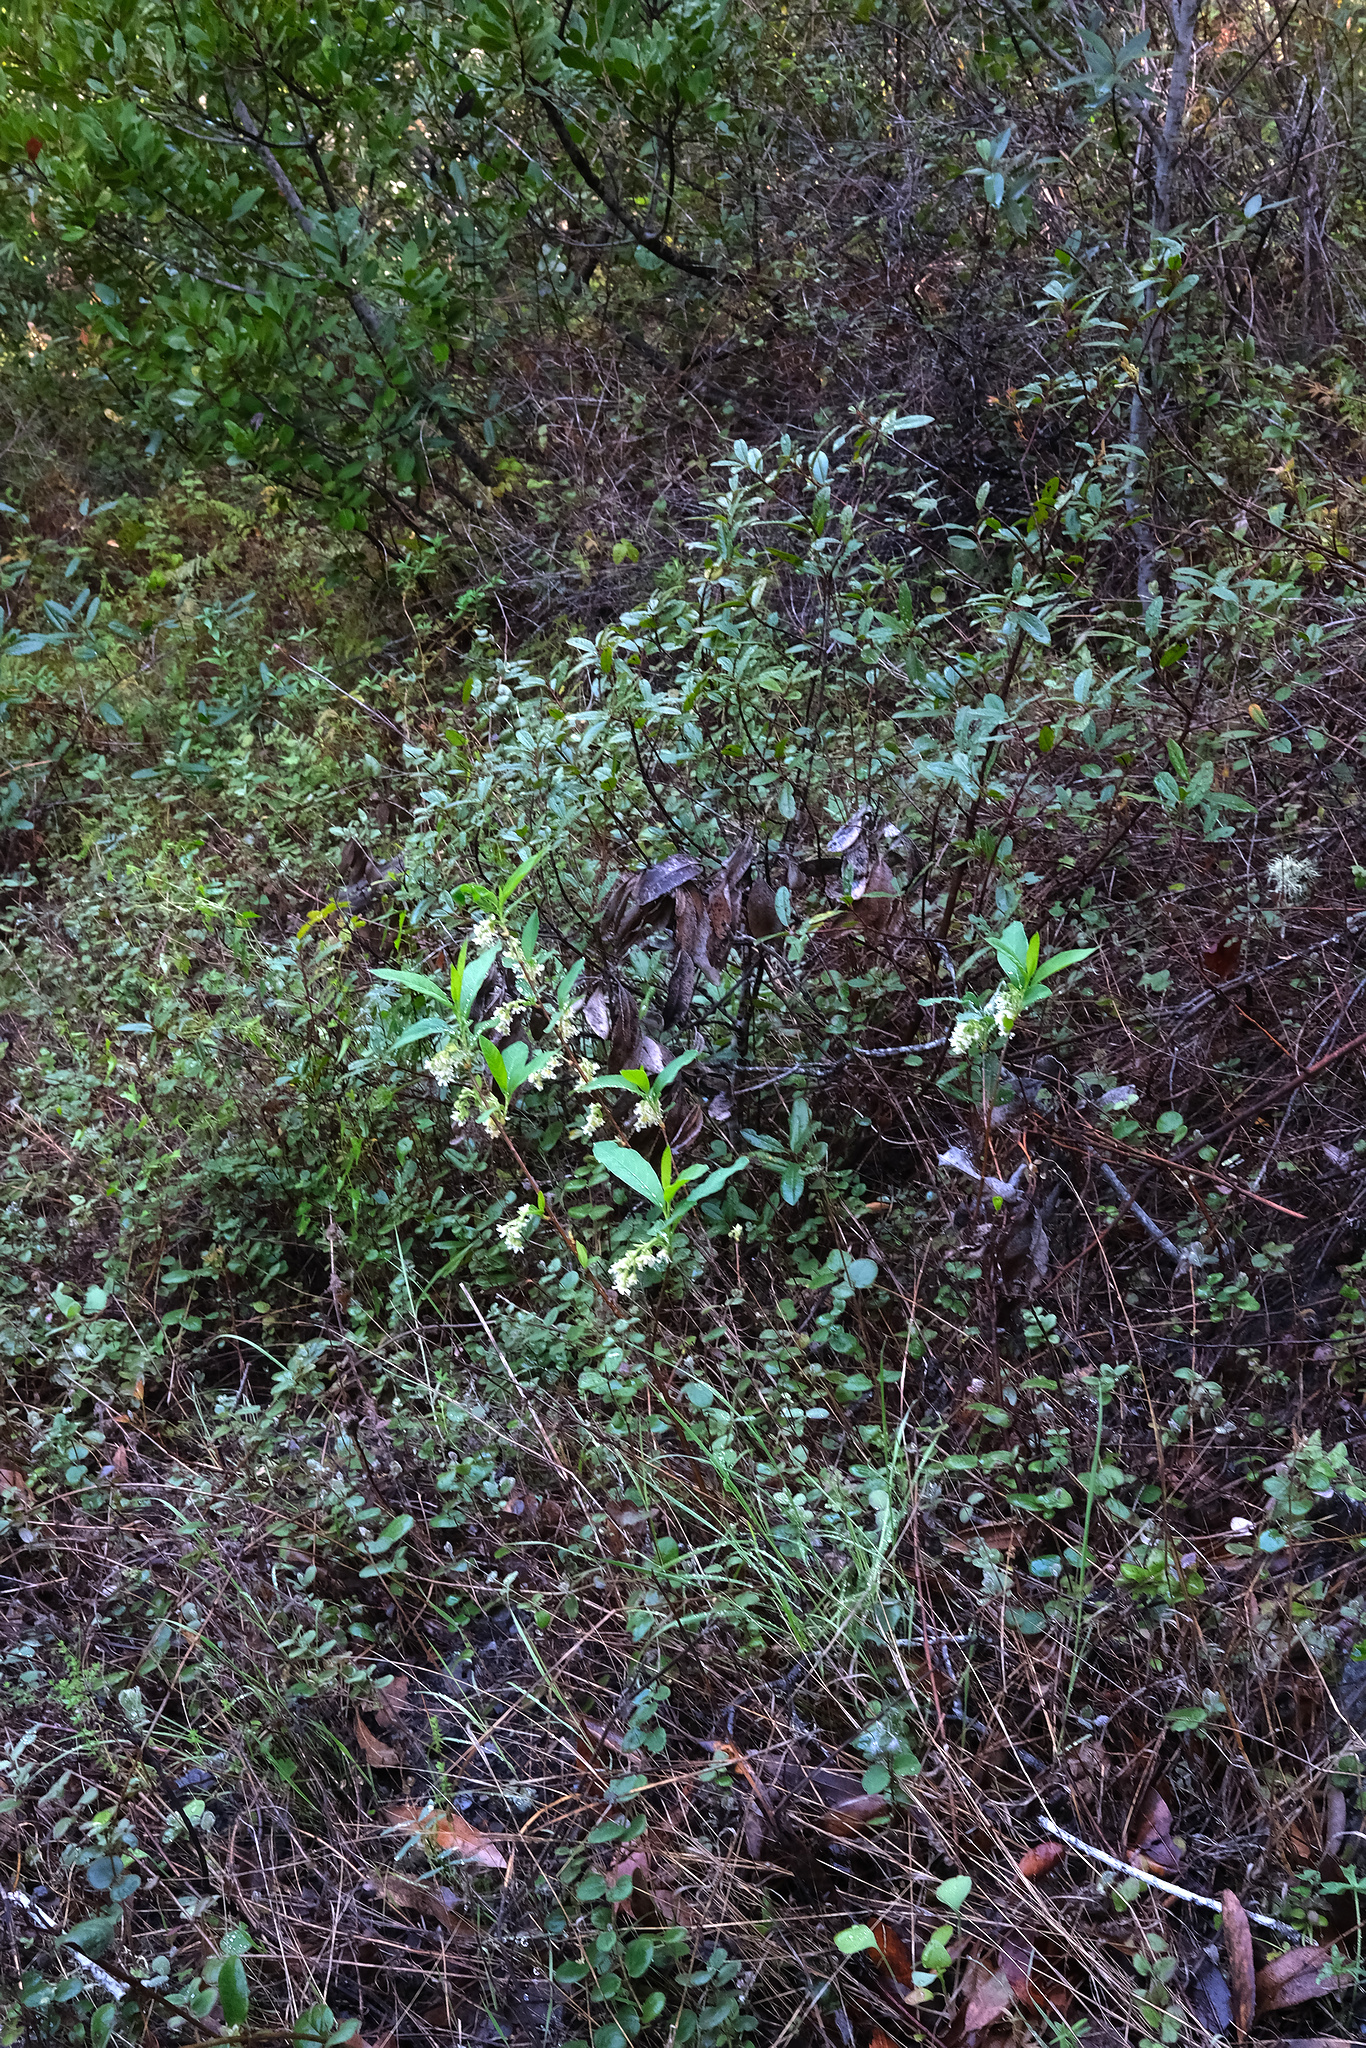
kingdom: Plantae
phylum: Tracheophyta
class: Magnoliopsida
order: Rosales
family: Rosaceae
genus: Oemleria
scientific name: Oemleria cerasiformis
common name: Osoberry
